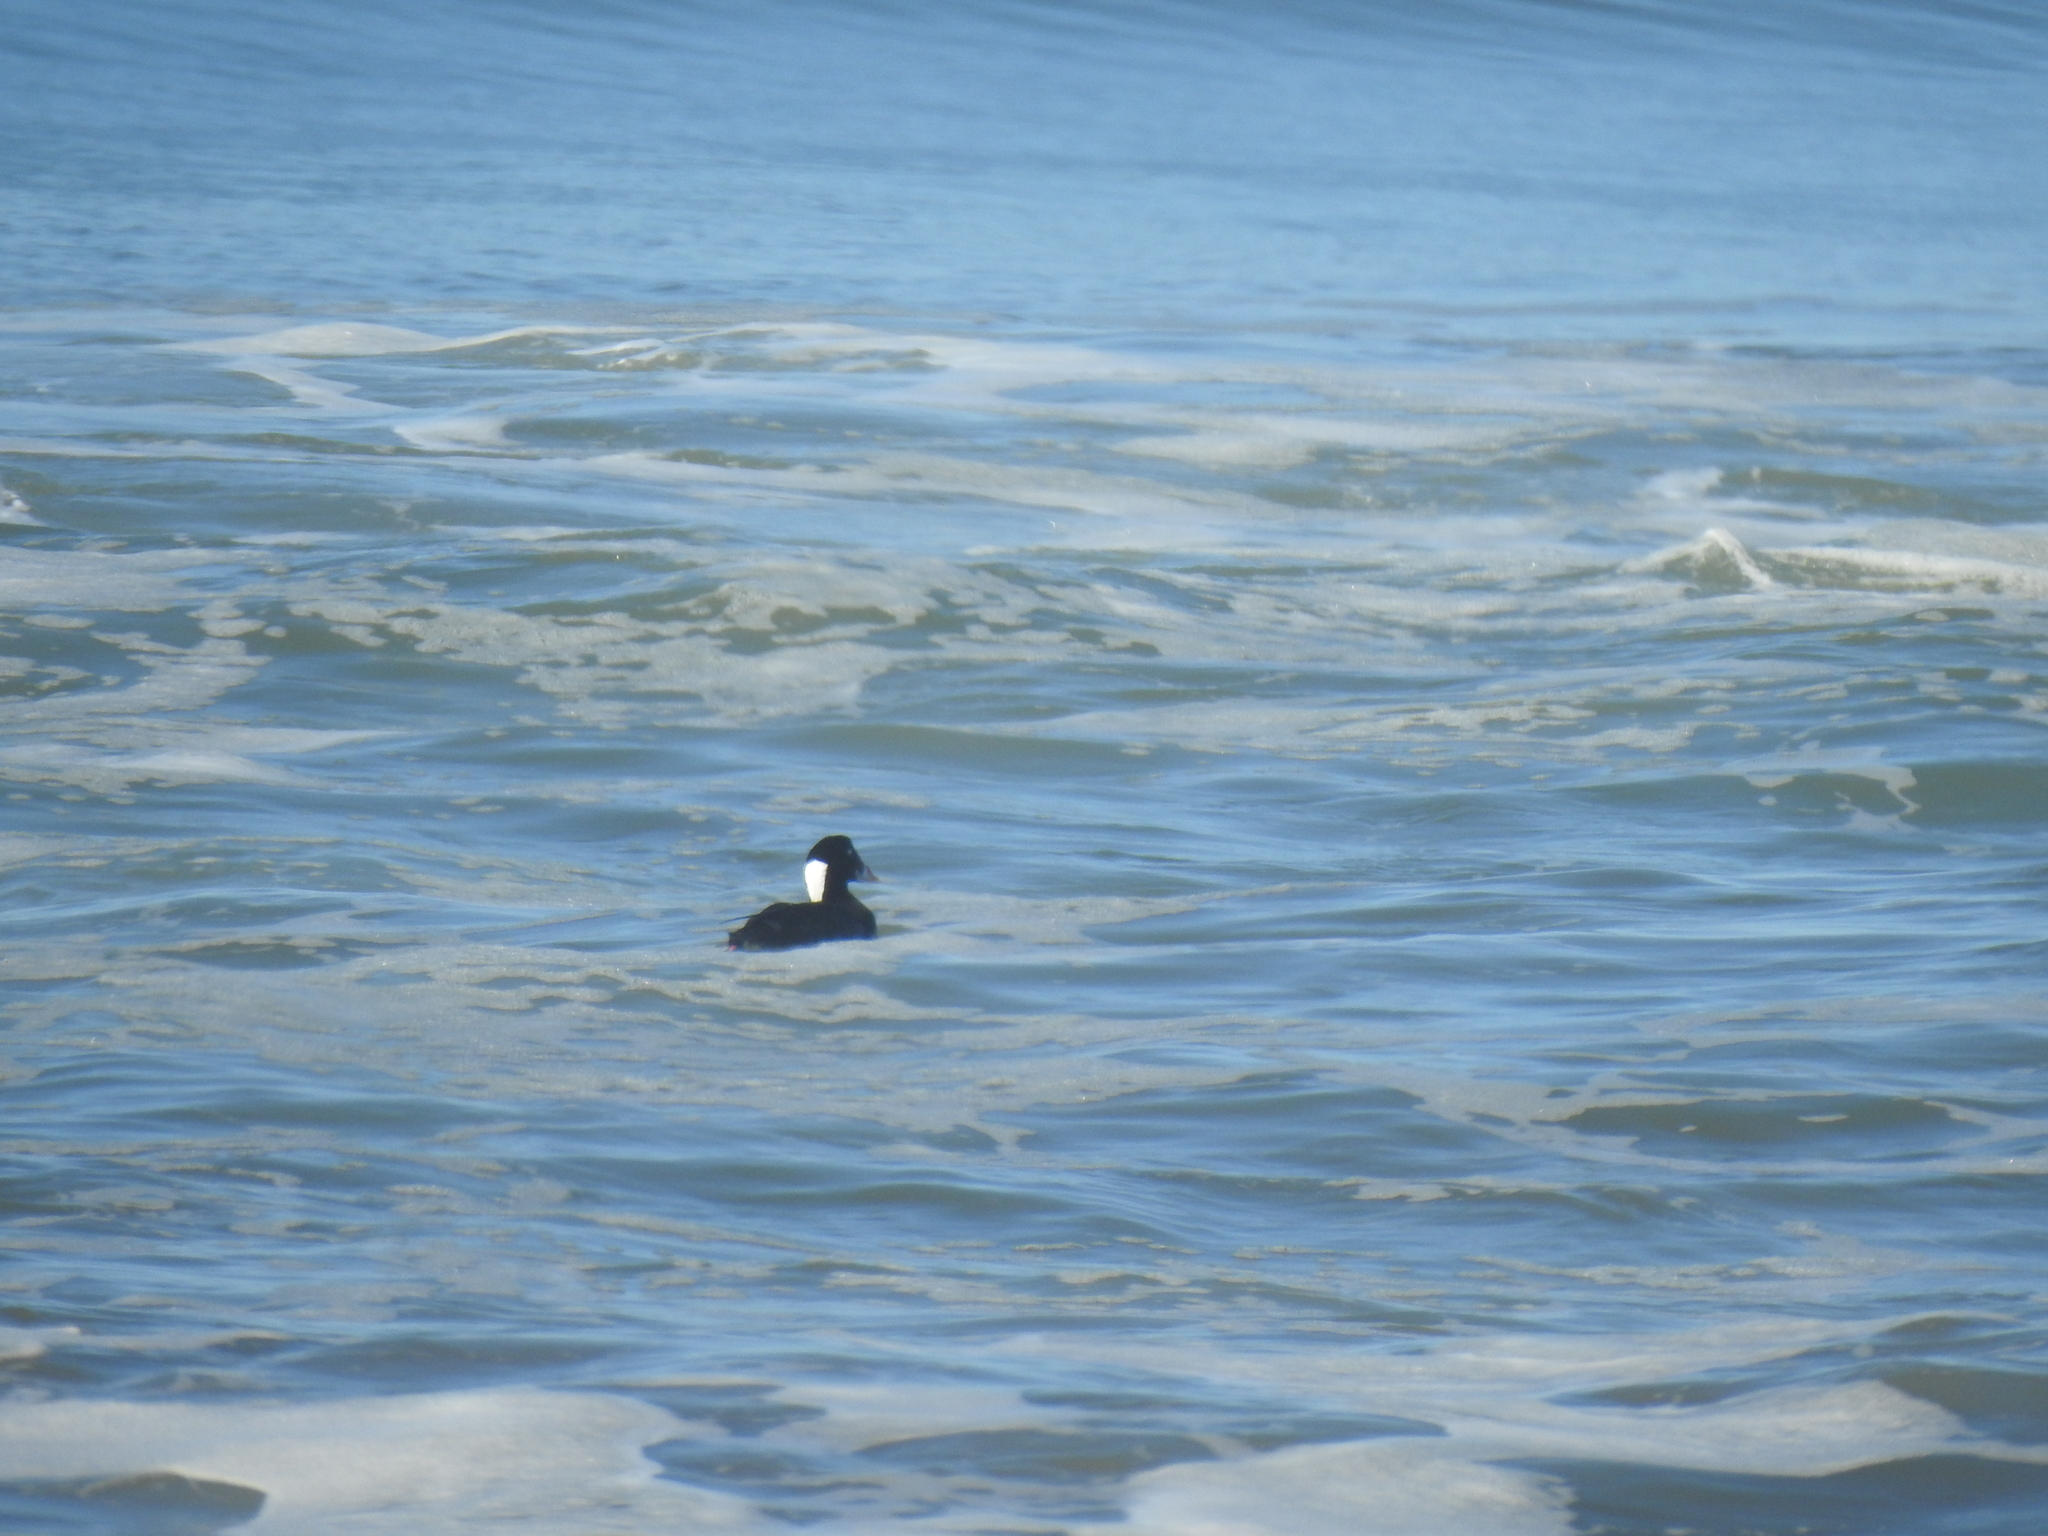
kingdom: Animalia
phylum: Chordata
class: Aves
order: Anseriformes
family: Anatidae
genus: Melanitta
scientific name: Melanitta perspicillata
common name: Surf scoter
